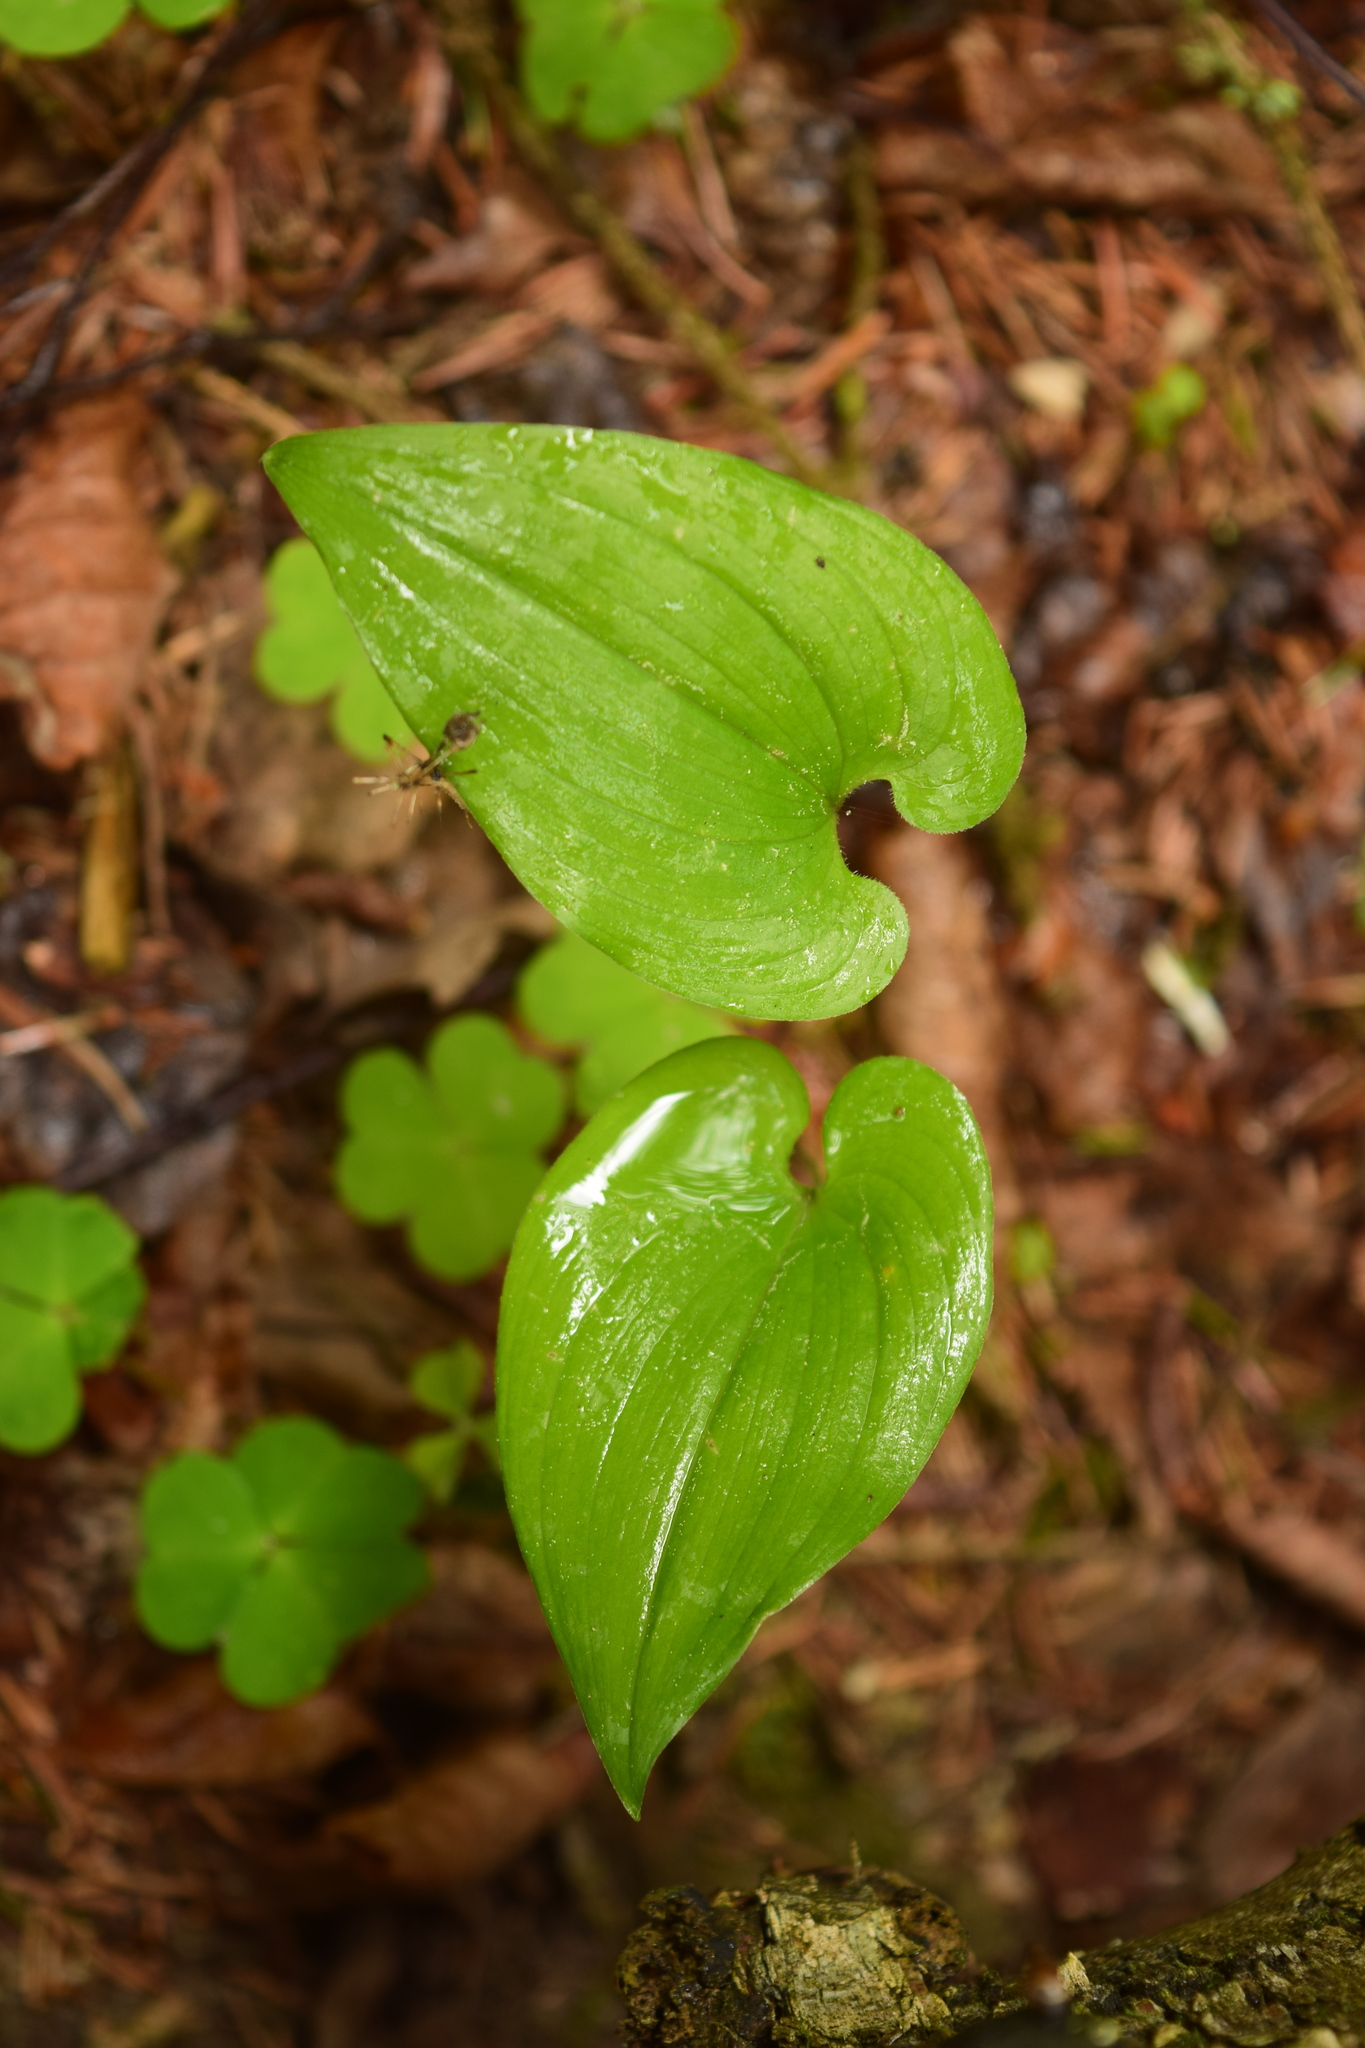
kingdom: Plantae
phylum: Tracheophyta
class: Liliopsida
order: Asparagales
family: Asparagaceae
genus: Maianthemum
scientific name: Maianthemum bifolium
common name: May lily
